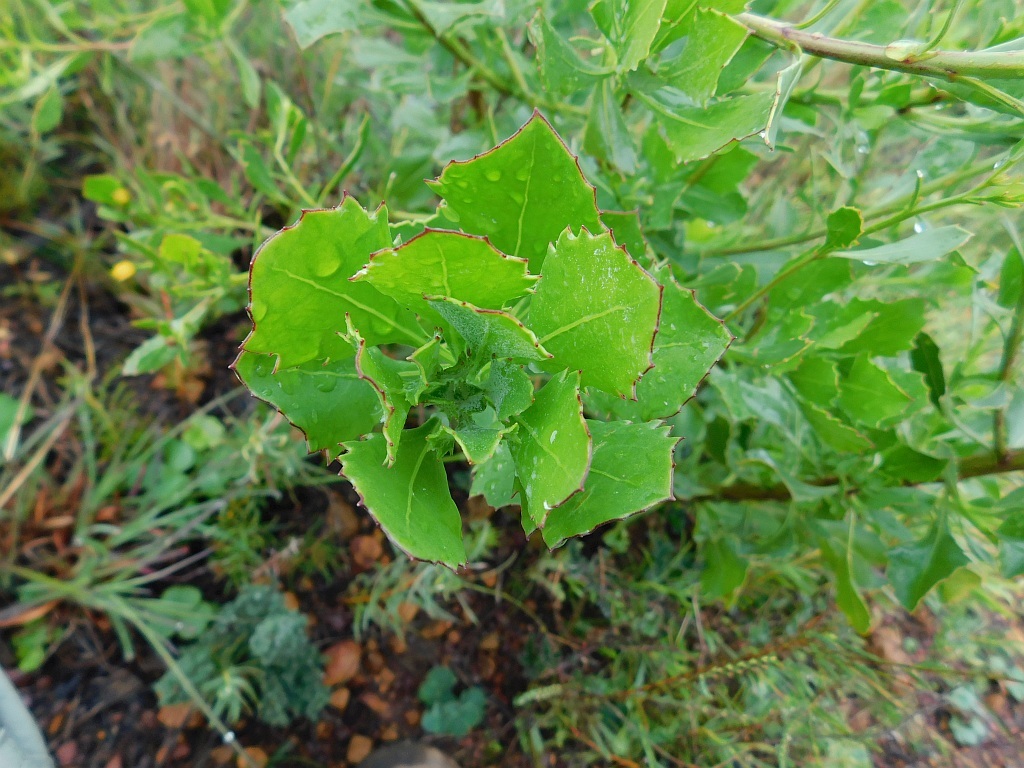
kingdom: Plantae
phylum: Tracheophyta
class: Magnoliopsida
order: Asterales
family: Asteraceae
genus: Osteospermum
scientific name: Osteospermum moniliferum
